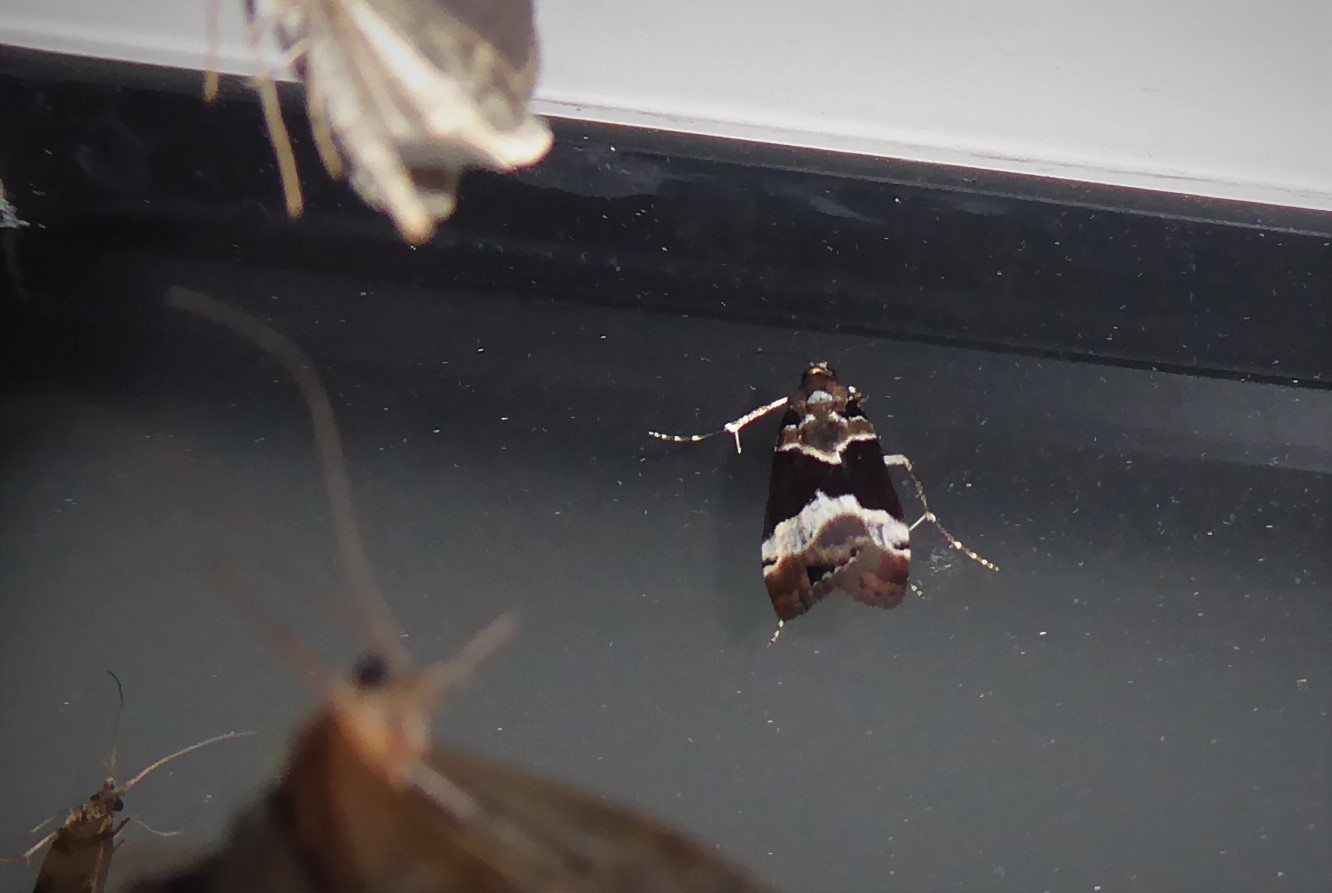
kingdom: Animalia
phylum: Arthropoda
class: Insecta
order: Lepidoptera
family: Crambidae
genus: Eudonia
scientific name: Eudonia aspidota
